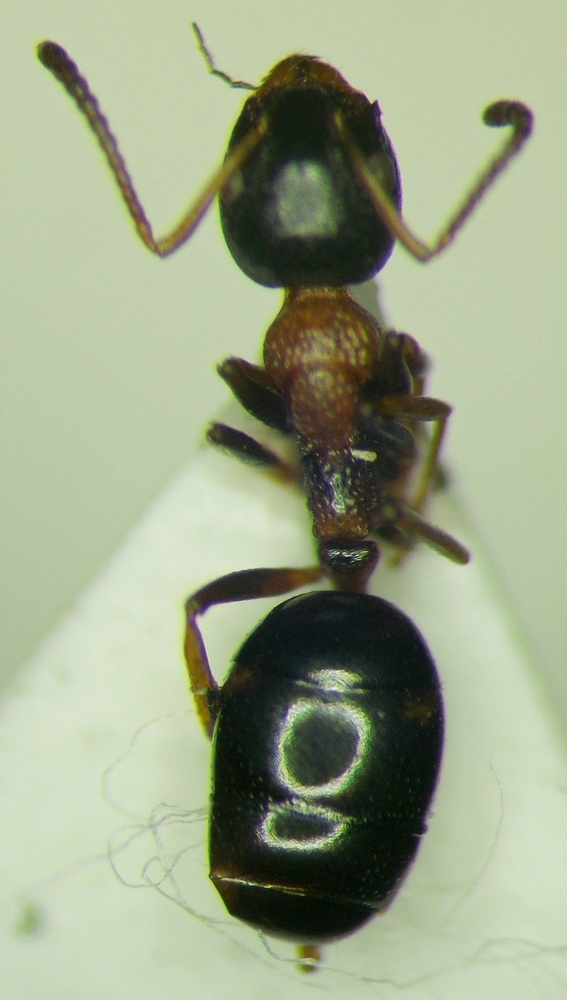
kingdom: Animalia
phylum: Arthropoda
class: Insecta
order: Hymenoptera
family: Formicidae
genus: Dolichoderus
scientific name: Dolichoderus quadripunctatus
